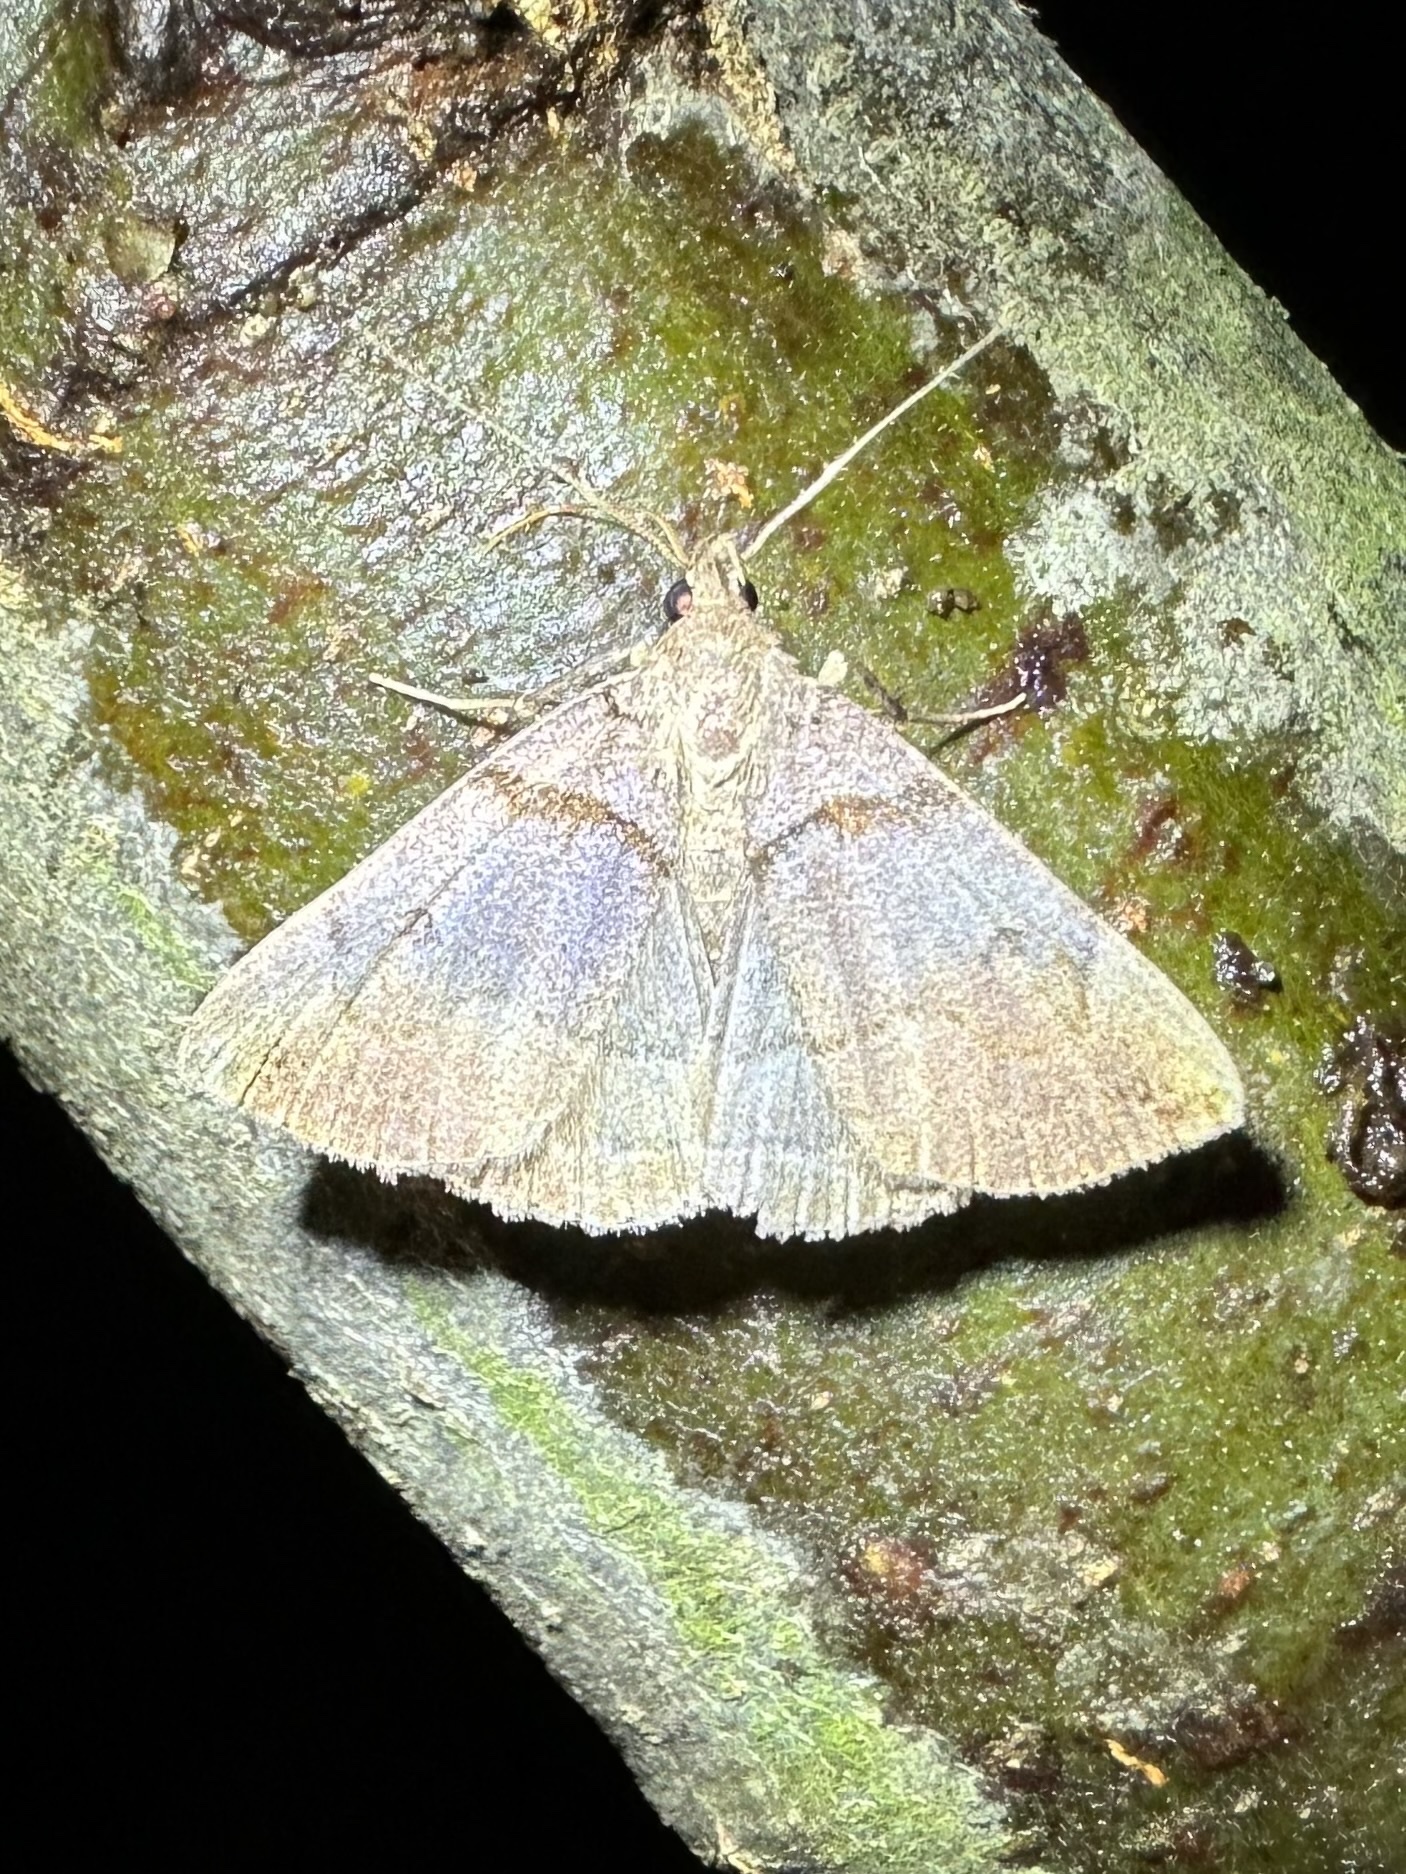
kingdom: Animalia
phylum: Arthropoda
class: Insecta
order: Lepidoptera
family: Erebidae
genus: Zanclognatha
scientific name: Zanclognatha laevigata
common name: Variable fan-foot
